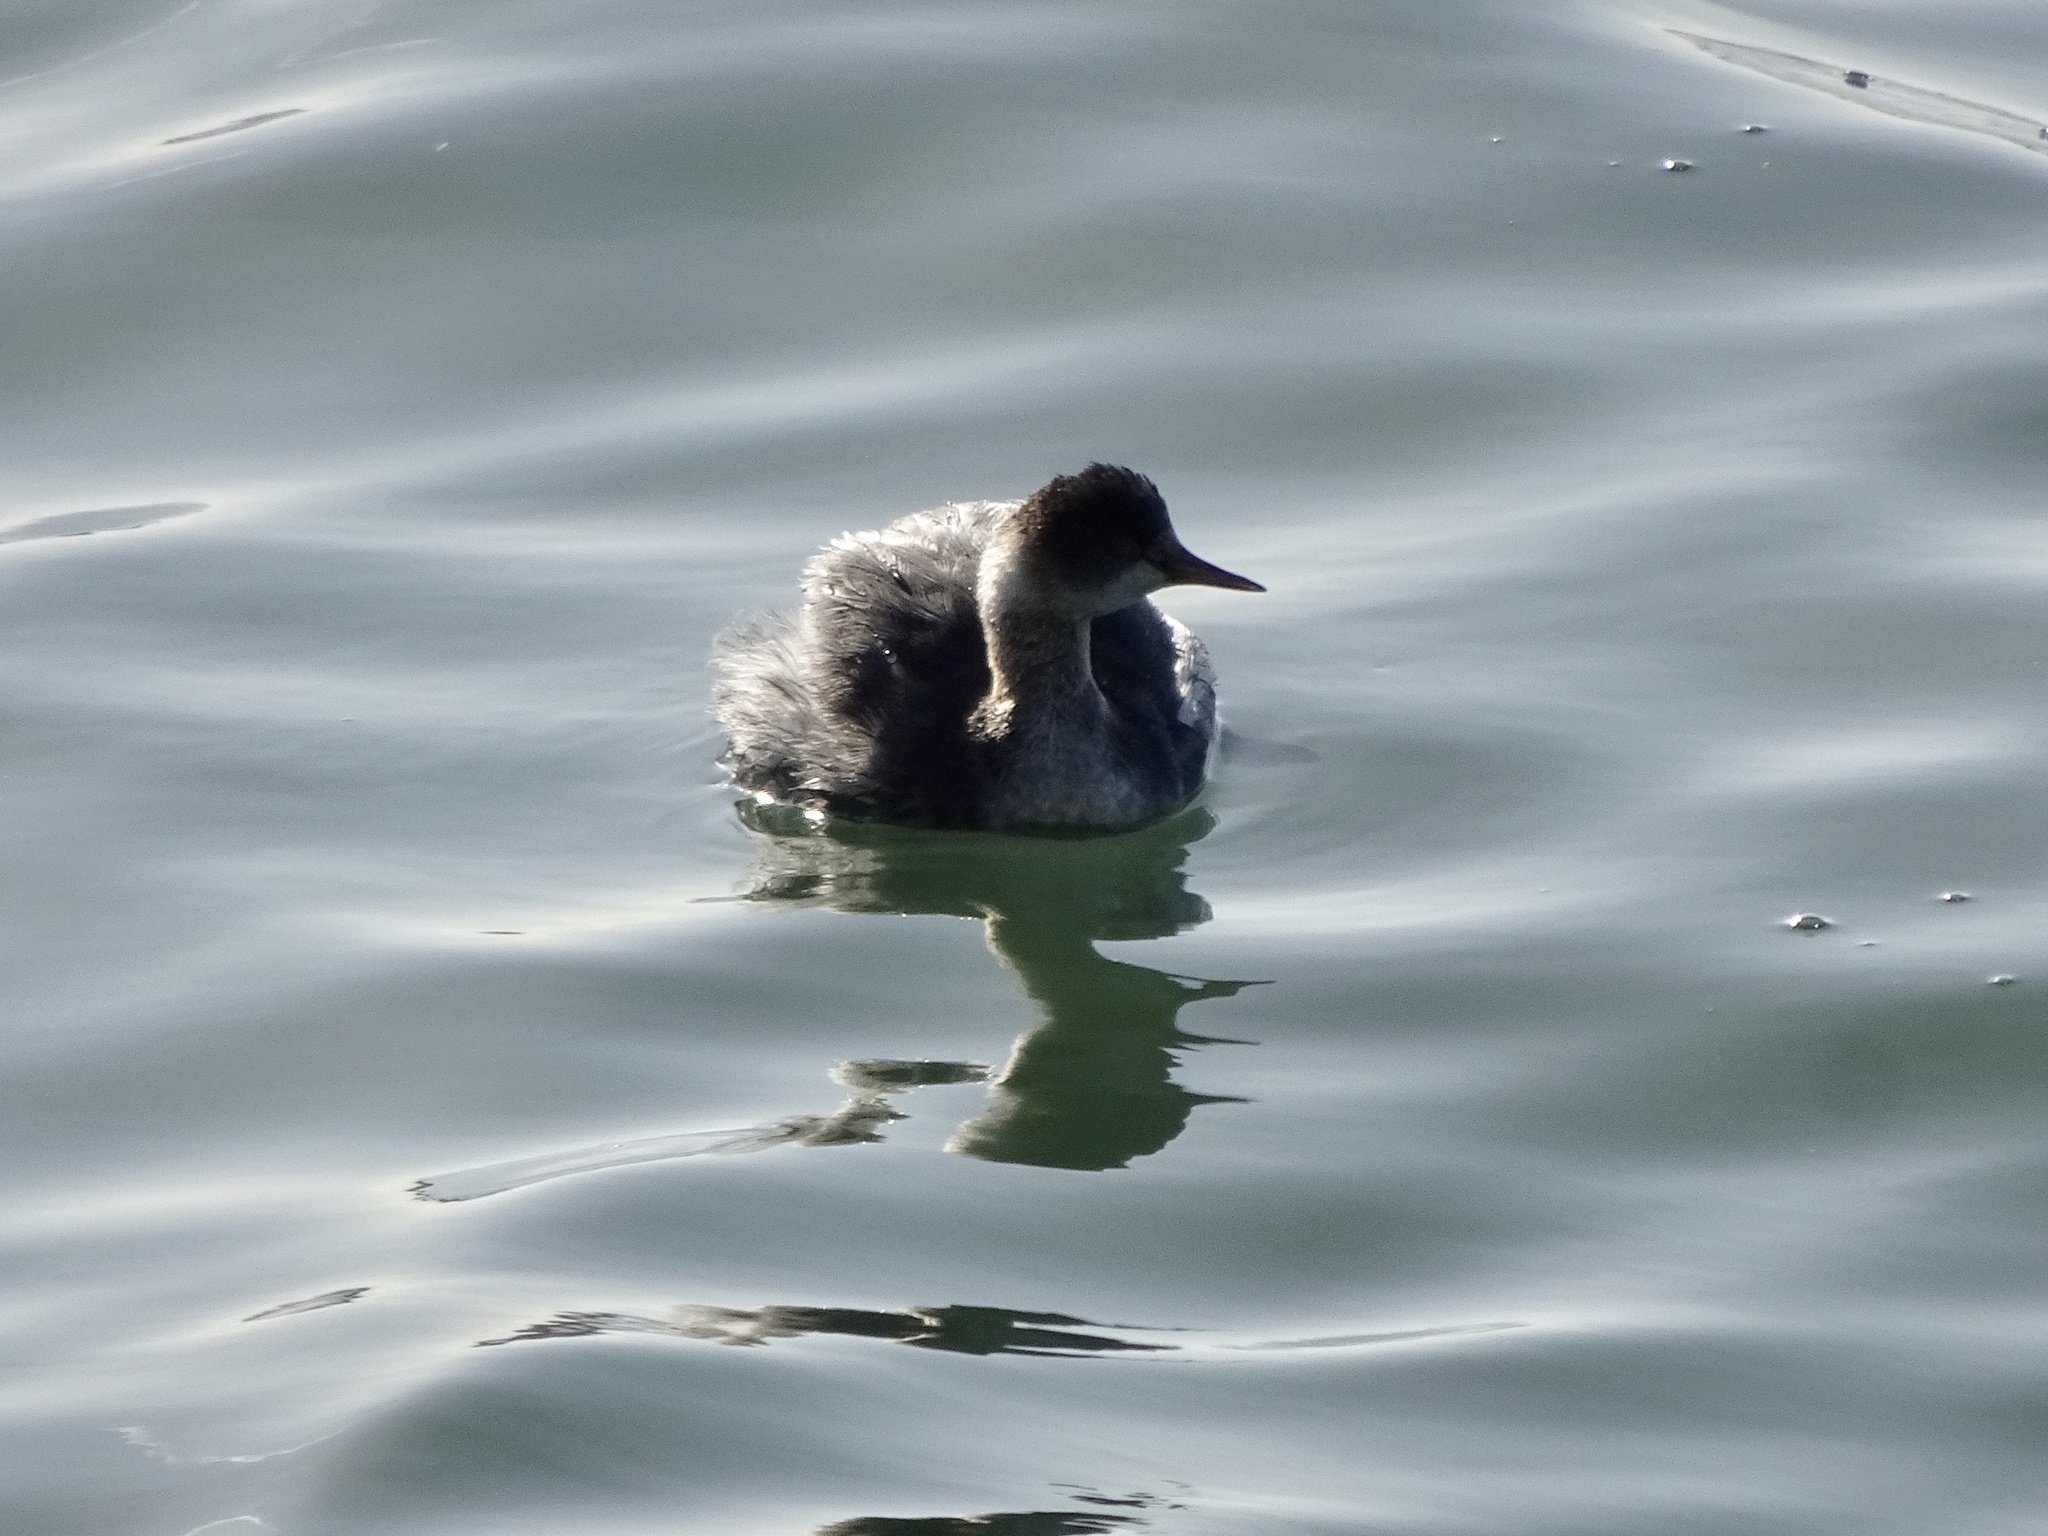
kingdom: Animalia
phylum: Chordata
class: Aves
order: Podicipediformes
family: Podicipedidae
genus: Podiceps
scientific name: Podiceps nigricollis
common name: Black-necked grebe
